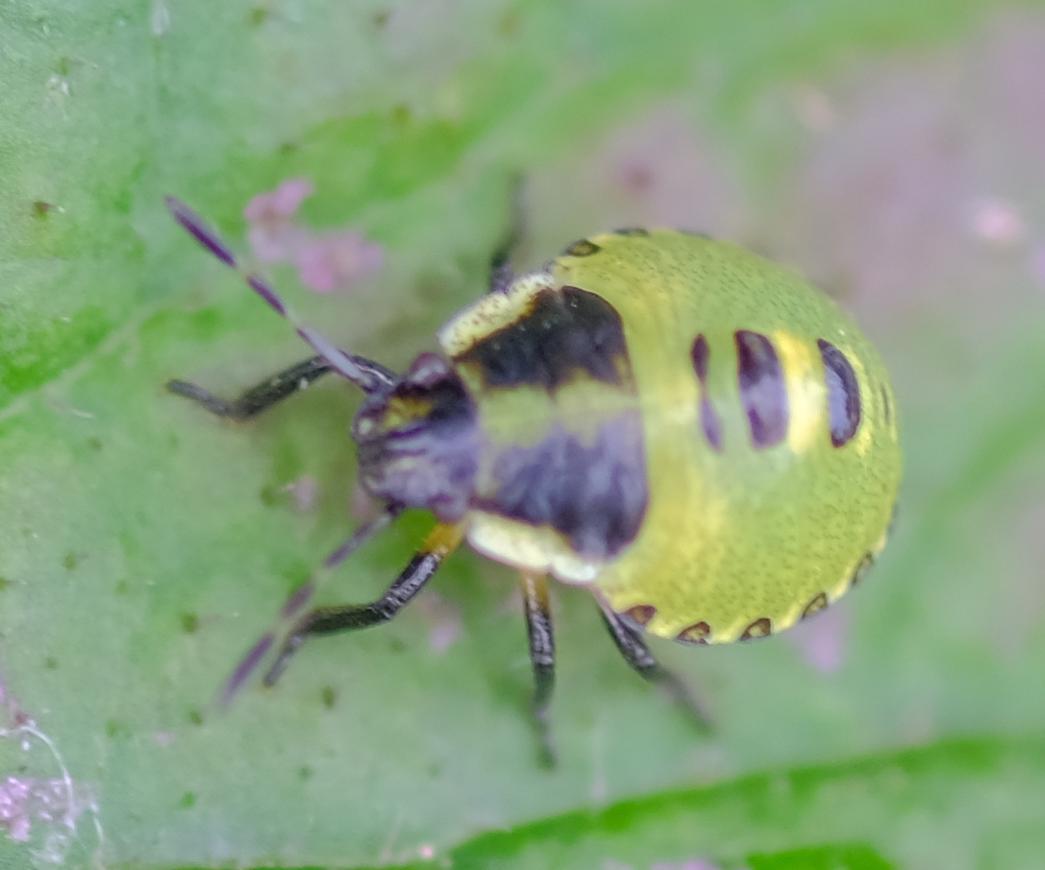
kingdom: Animalia
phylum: Arthropoda
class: Insecta
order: Hemiptera
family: Pentatomidae
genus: Palomena
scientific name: Palomena prasina
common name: Green shieldbug
